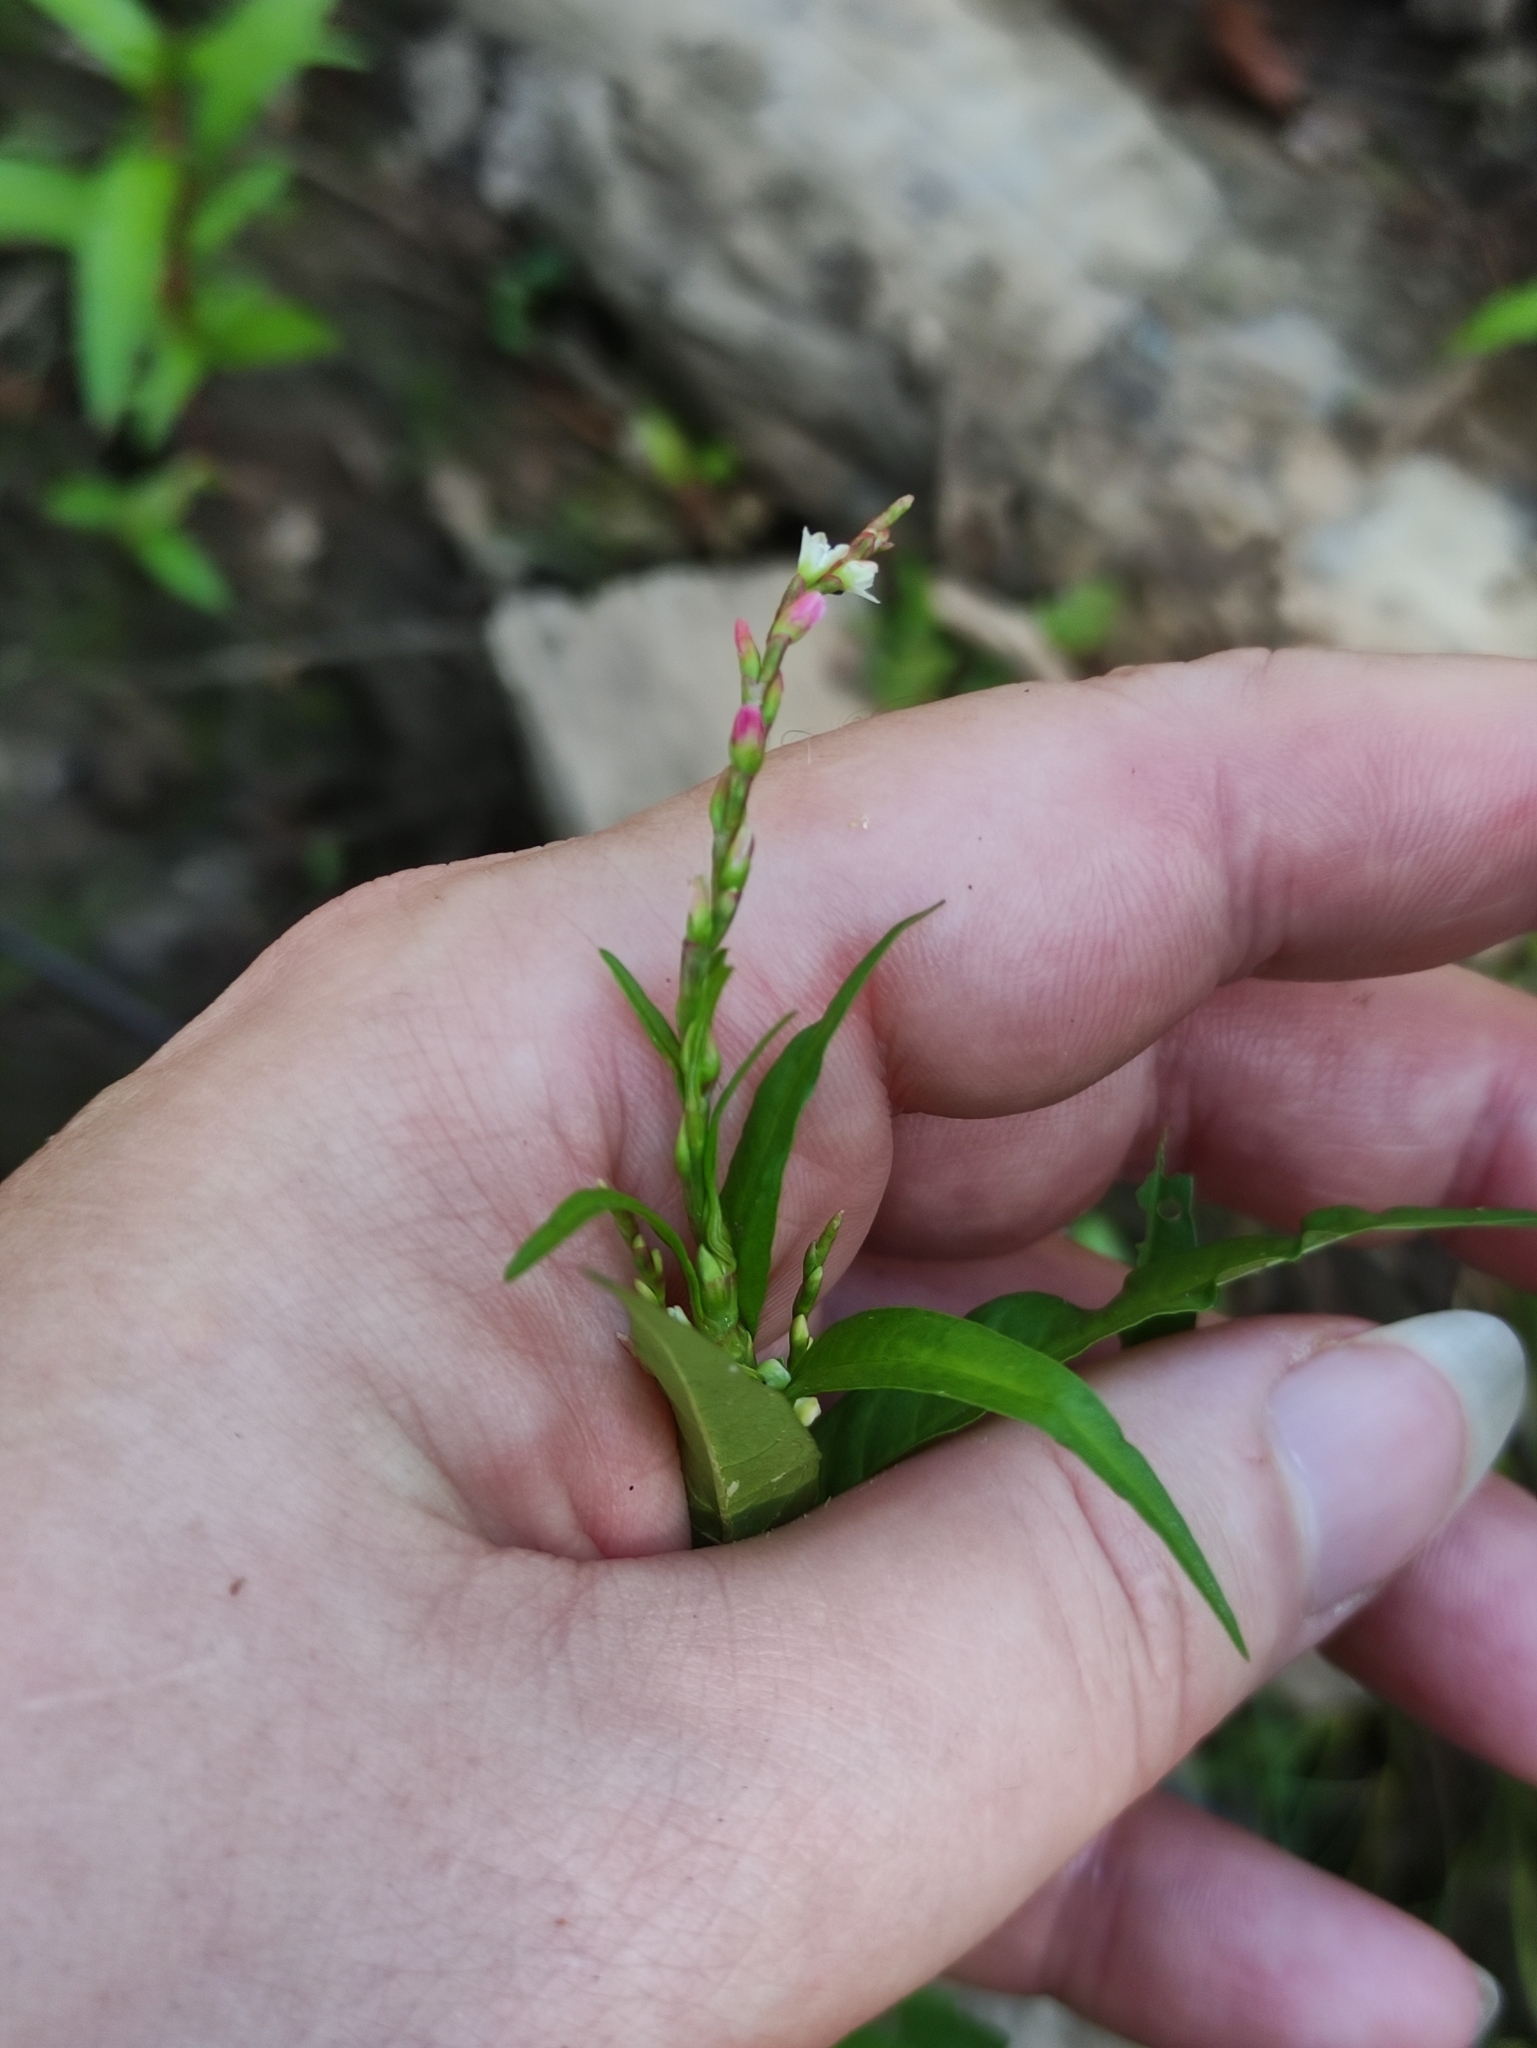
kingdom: Plantae
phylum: Tracheophyta
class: Magnoliopsida
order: Caryophyllales
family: Polygonaceae
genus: Persicaria
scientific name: Persicaria hydropiper
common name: Water-pepper
